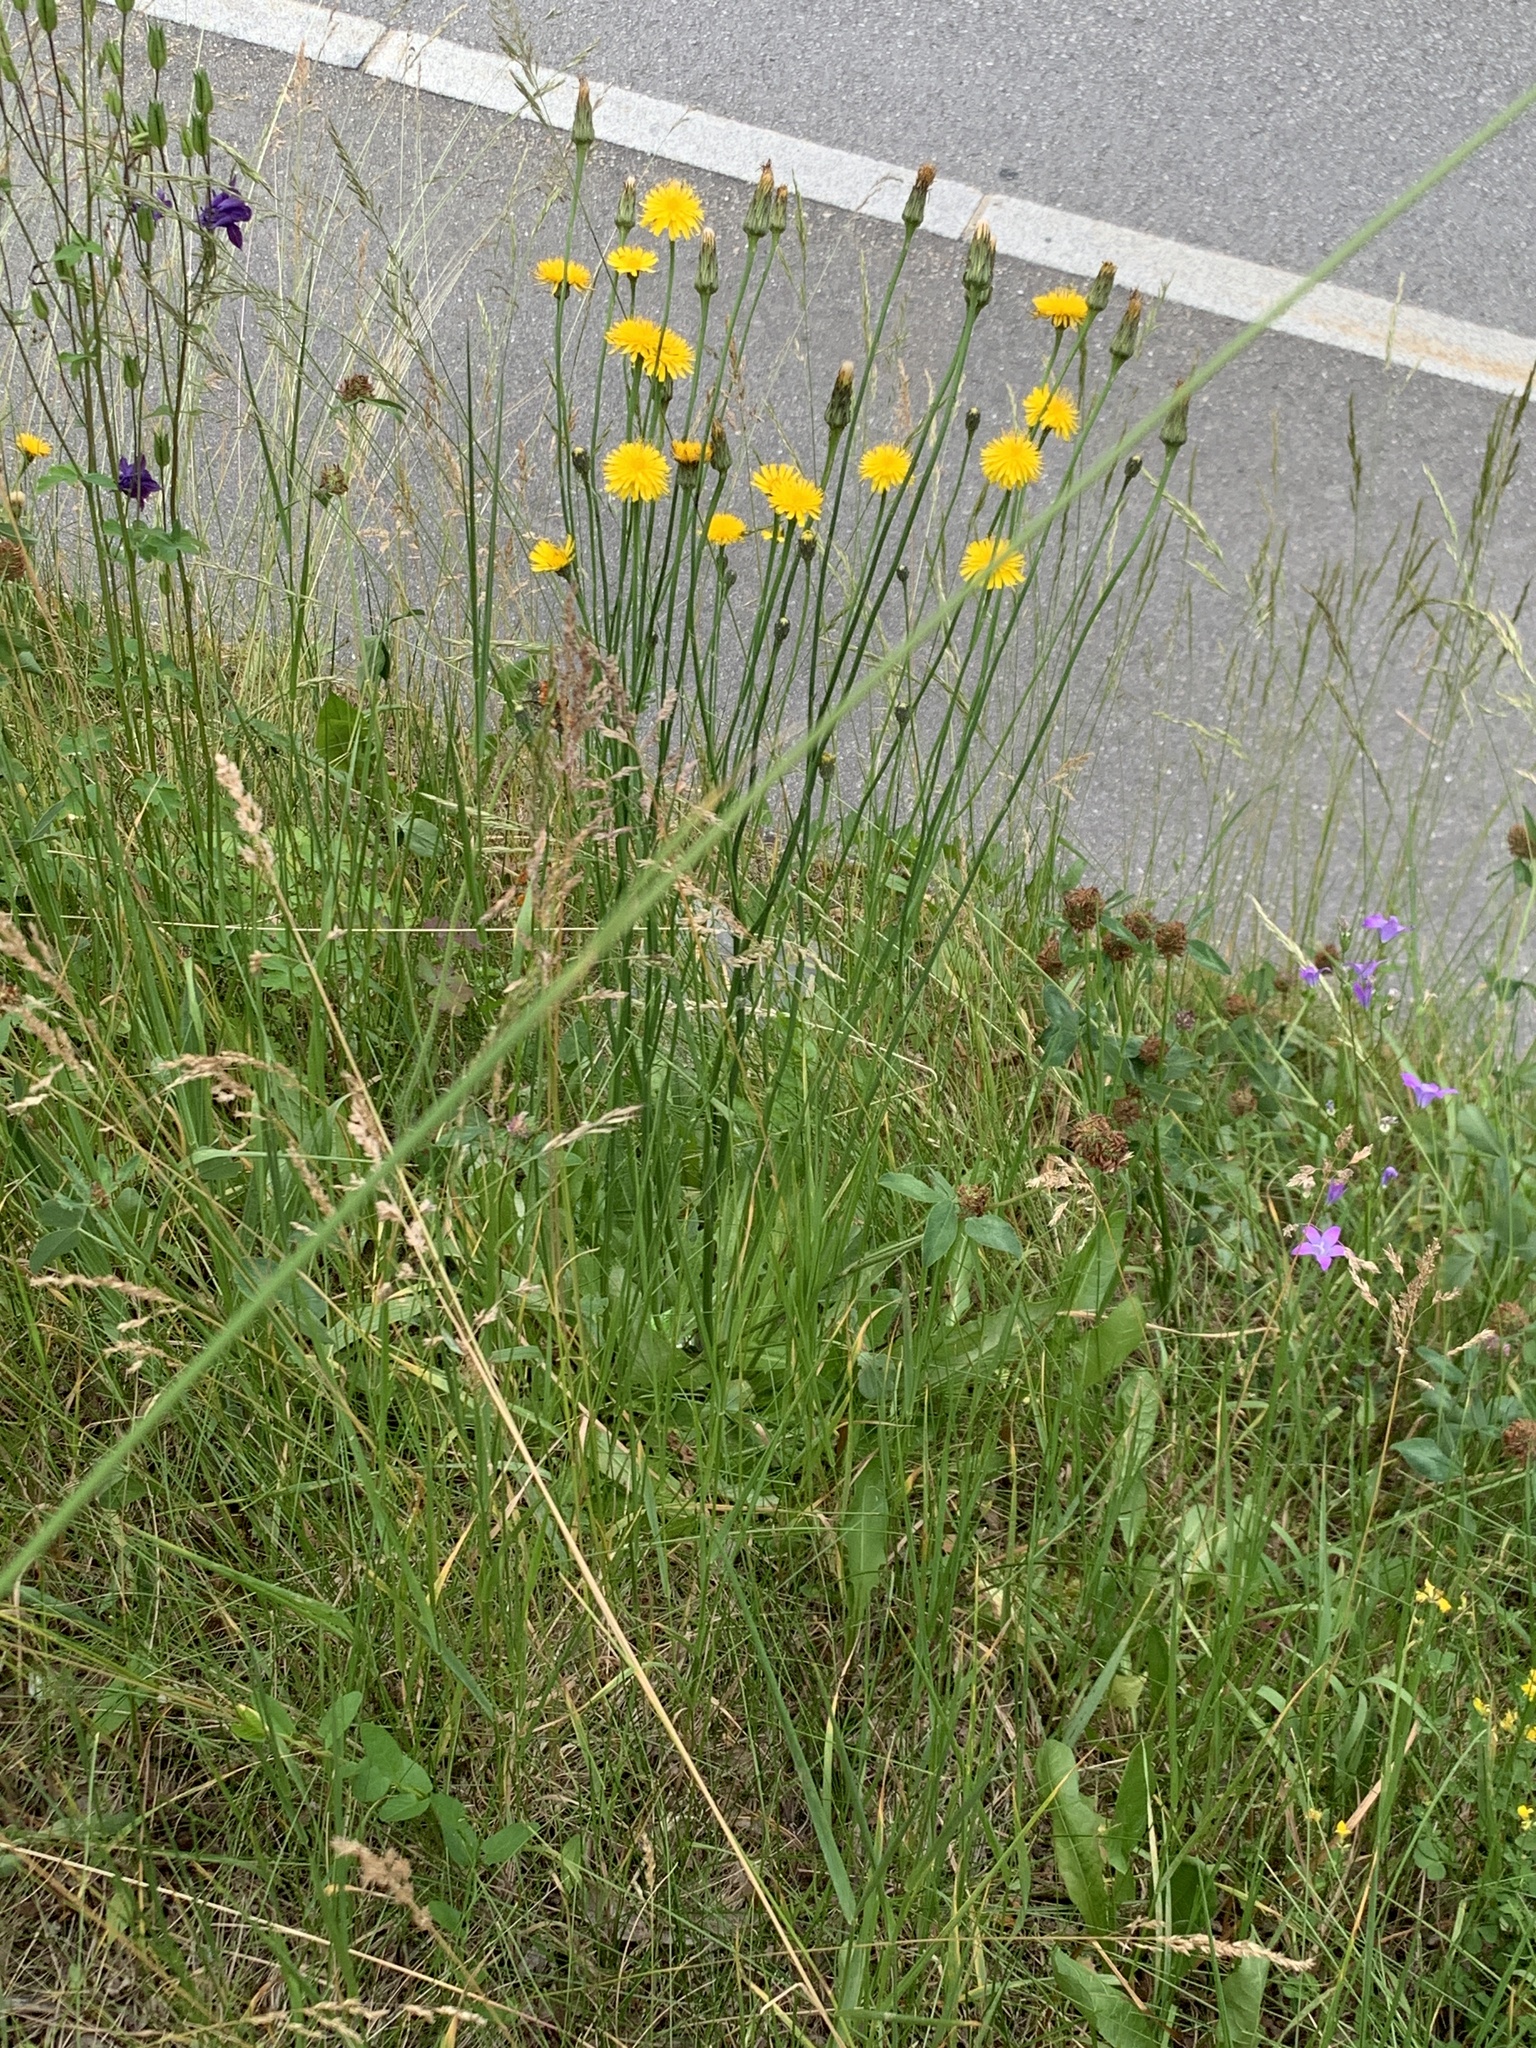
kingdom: Plantae
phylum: Tracheophyta
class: Magnoliopsida
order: Asterales
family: Asteraceae
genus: Hypochaeris
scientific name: Hypochaeris radicata
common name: Flatweed
